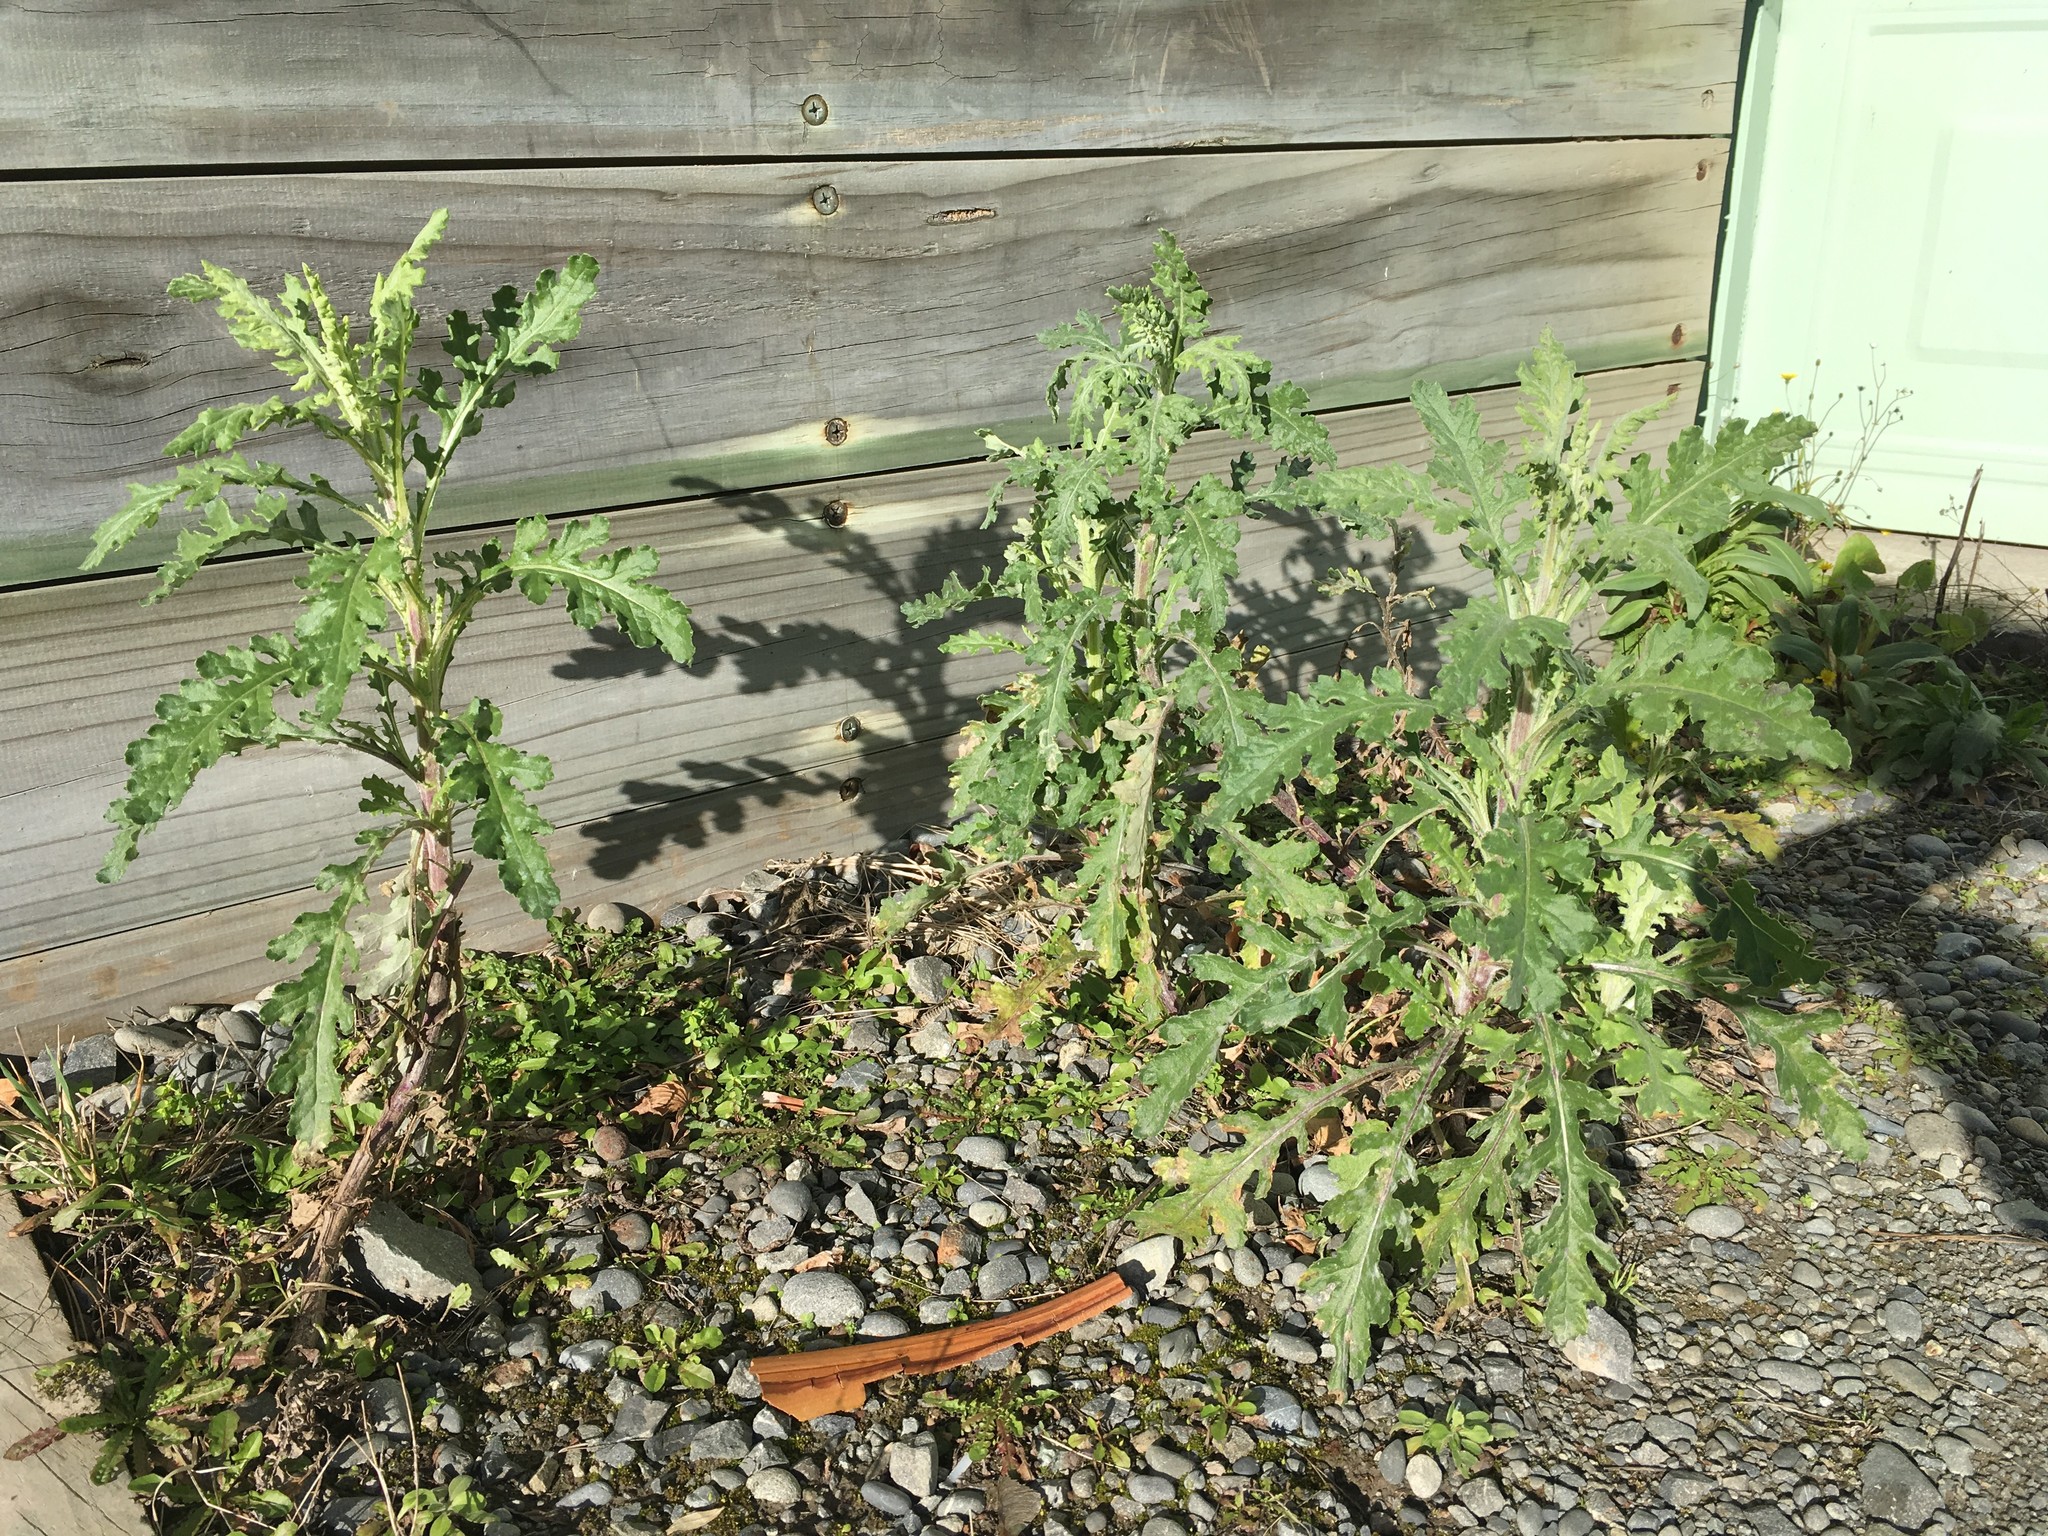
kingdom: Plantae
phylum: Tracheophyta
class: Magnoliopsida
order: Asterales
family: Asteraceae
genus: Senecio
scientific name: Senecio glomeratus
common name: Cutleaf burnweed
